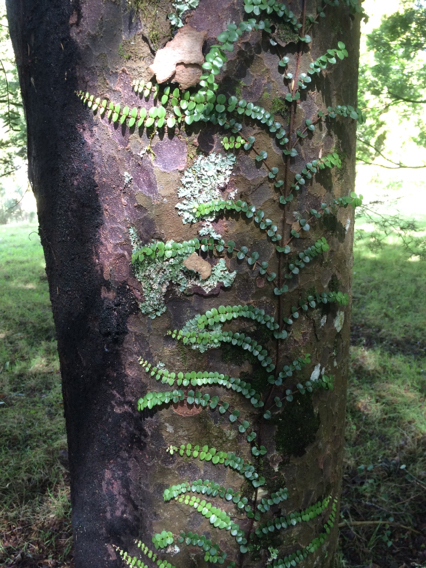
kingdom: Plantae
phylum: Tracheophyta
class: Magnoliopsida
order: Myrtales
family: Myrtaceae
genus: Metrosideros
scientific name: Metrosideros perforata
